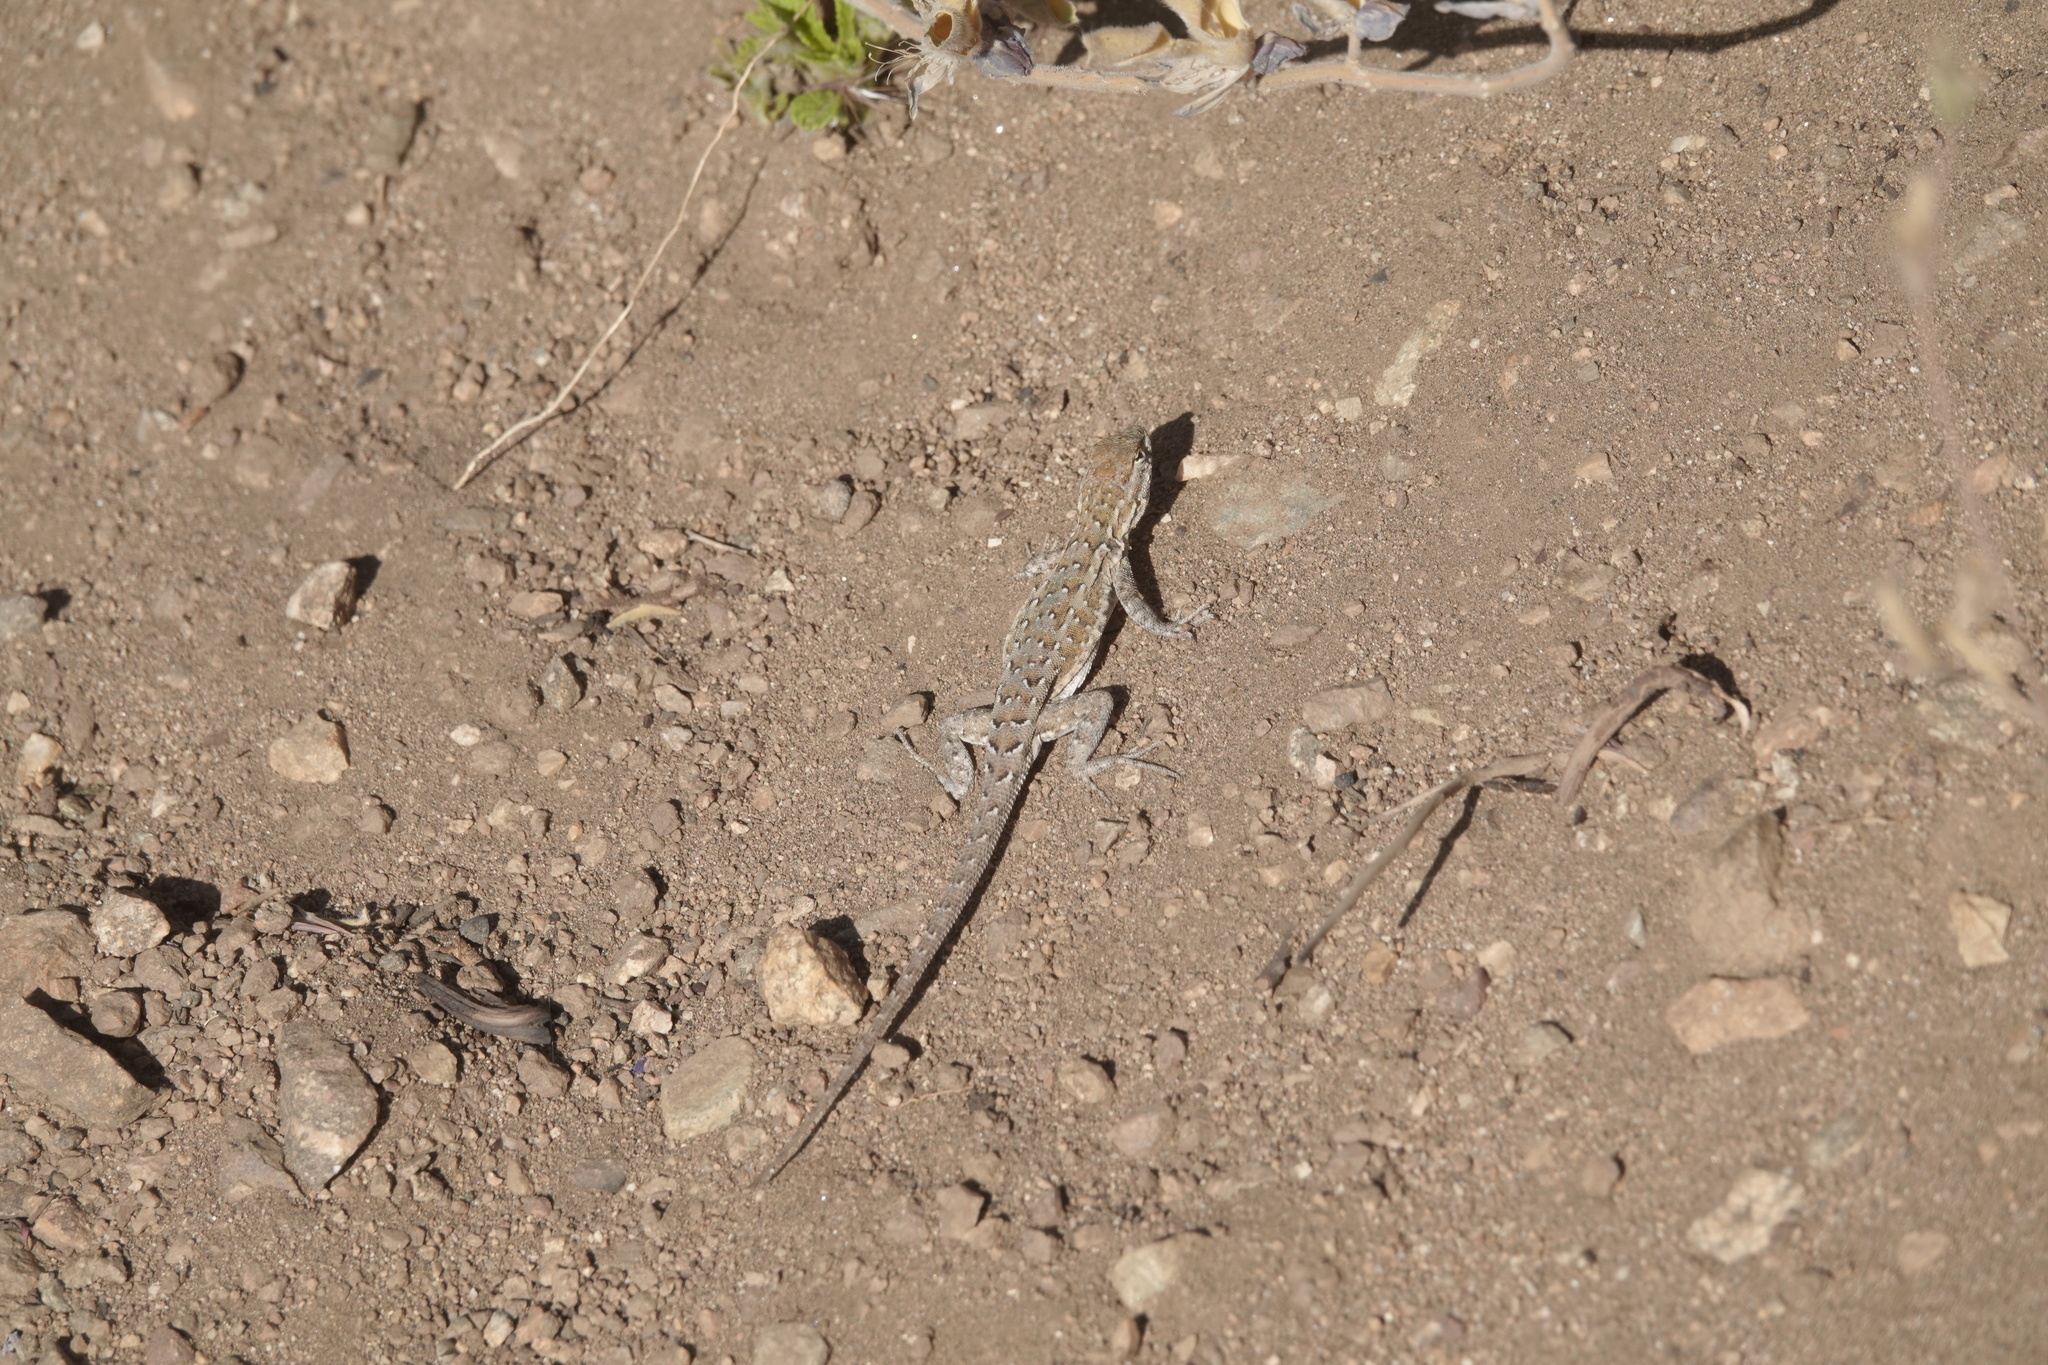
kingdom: Animalia
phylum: Chordata
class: Squamata
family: Phrynosomatidae
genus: Uta
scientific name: Uta stansburiana
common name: Side-blotched lizard
